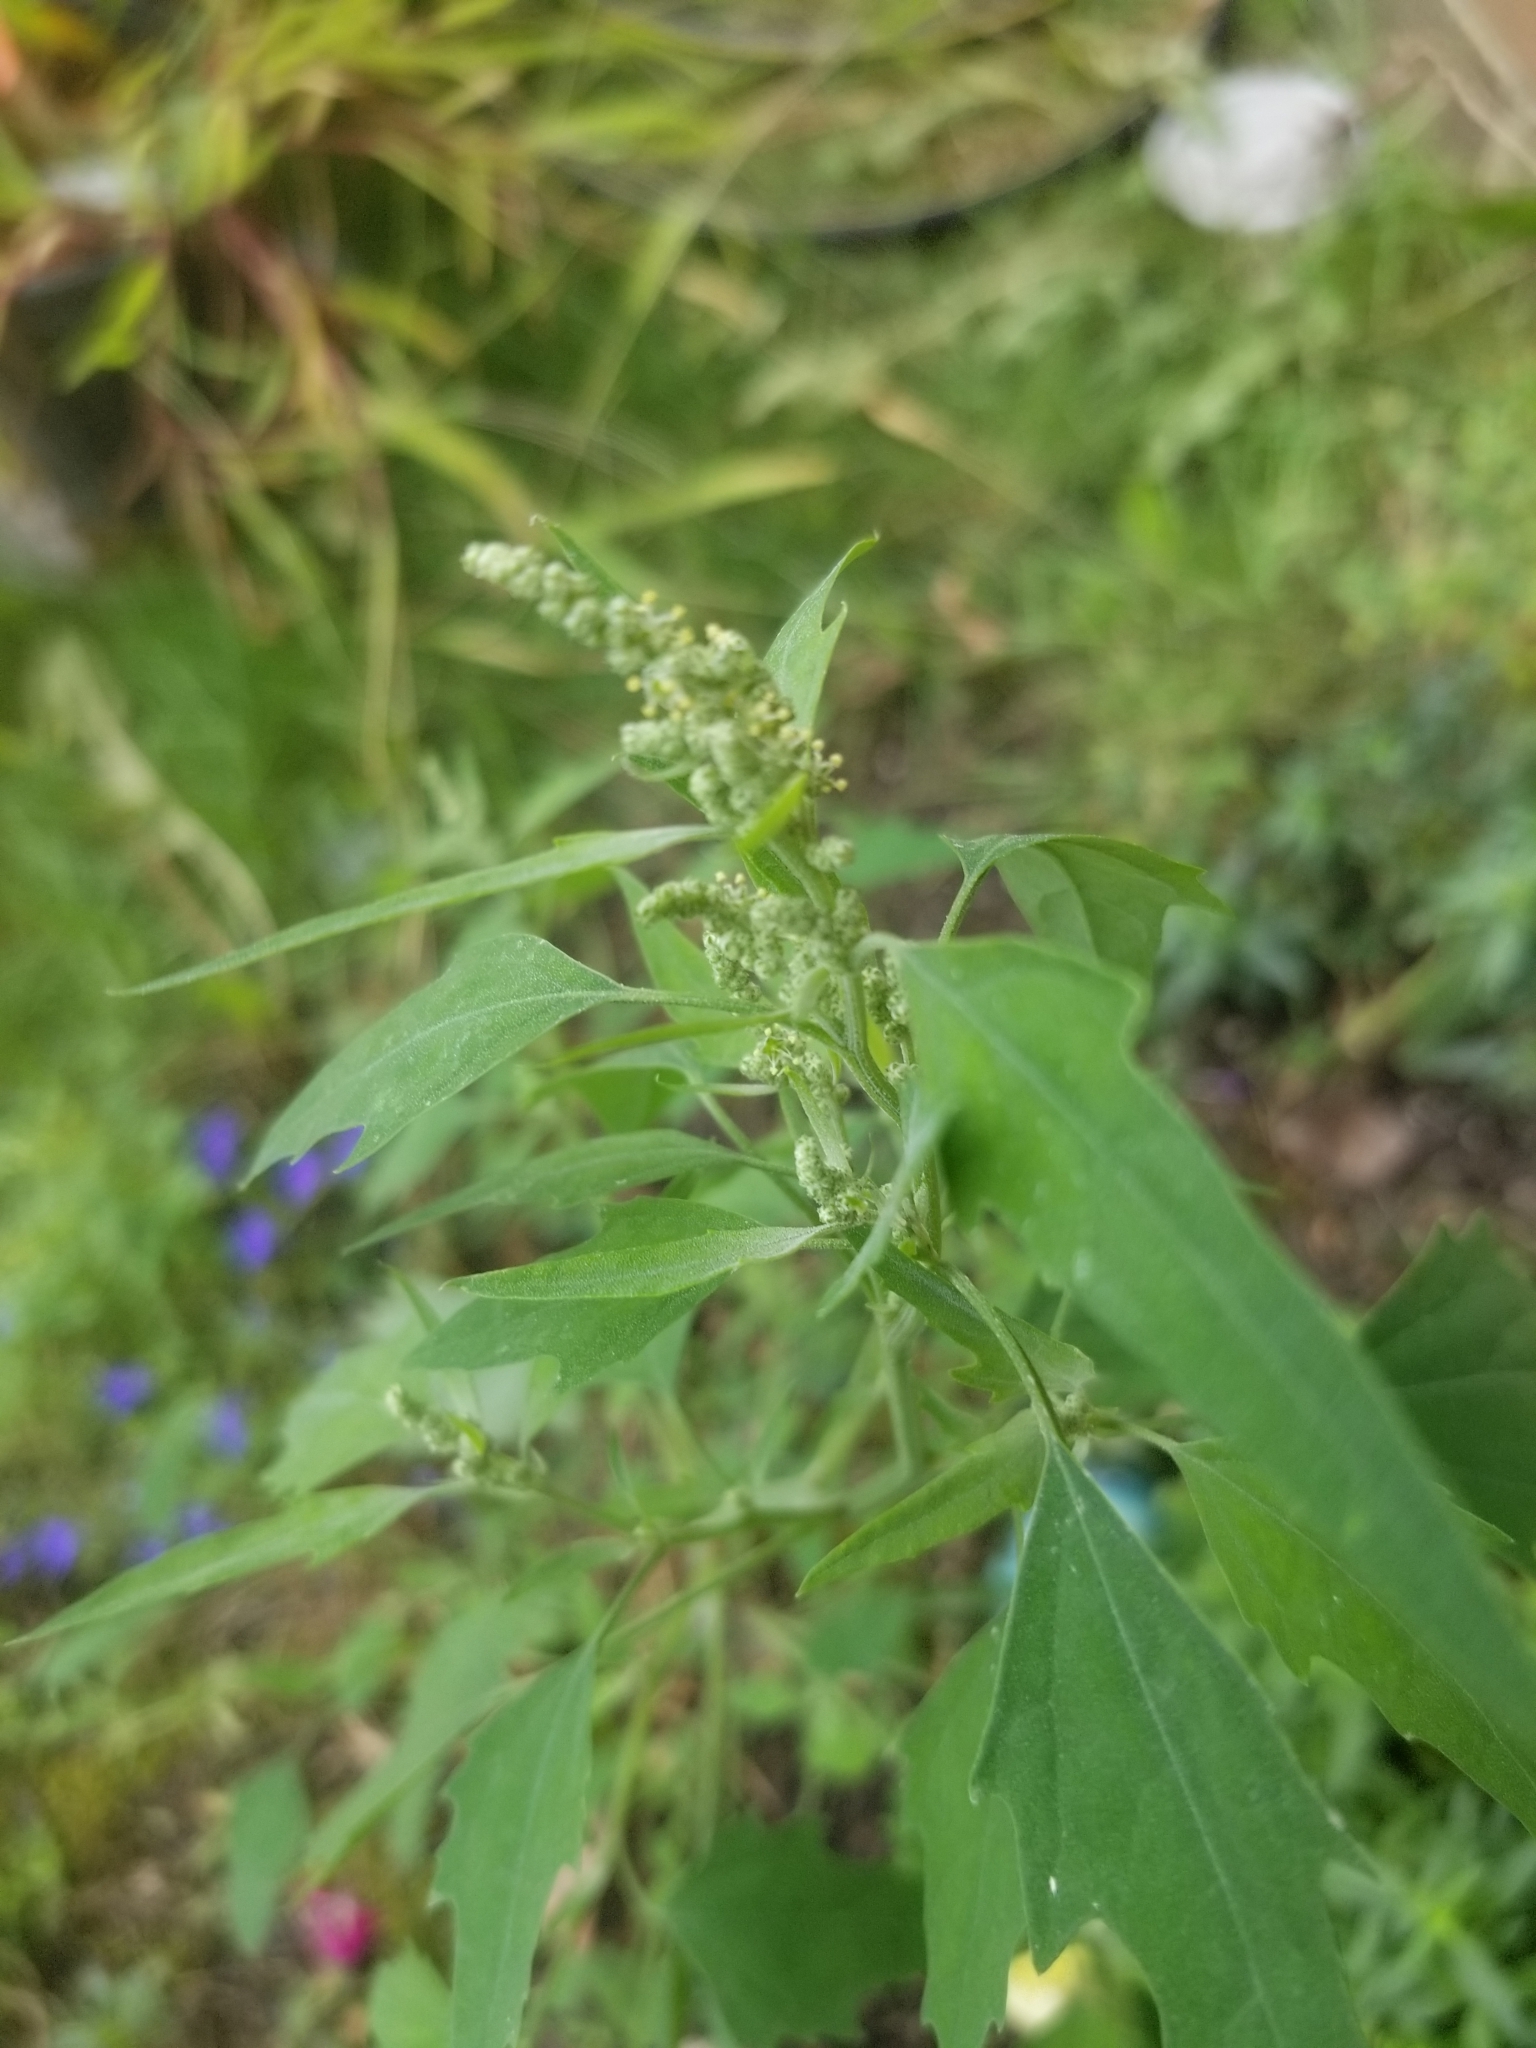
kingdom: Plantae
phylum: Tracheophyta
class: Magnoliopsida
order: Caryophyllales
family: Amaranthaceae
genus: Chenopodium
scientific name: Chenopodium album
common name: Fat-hen
